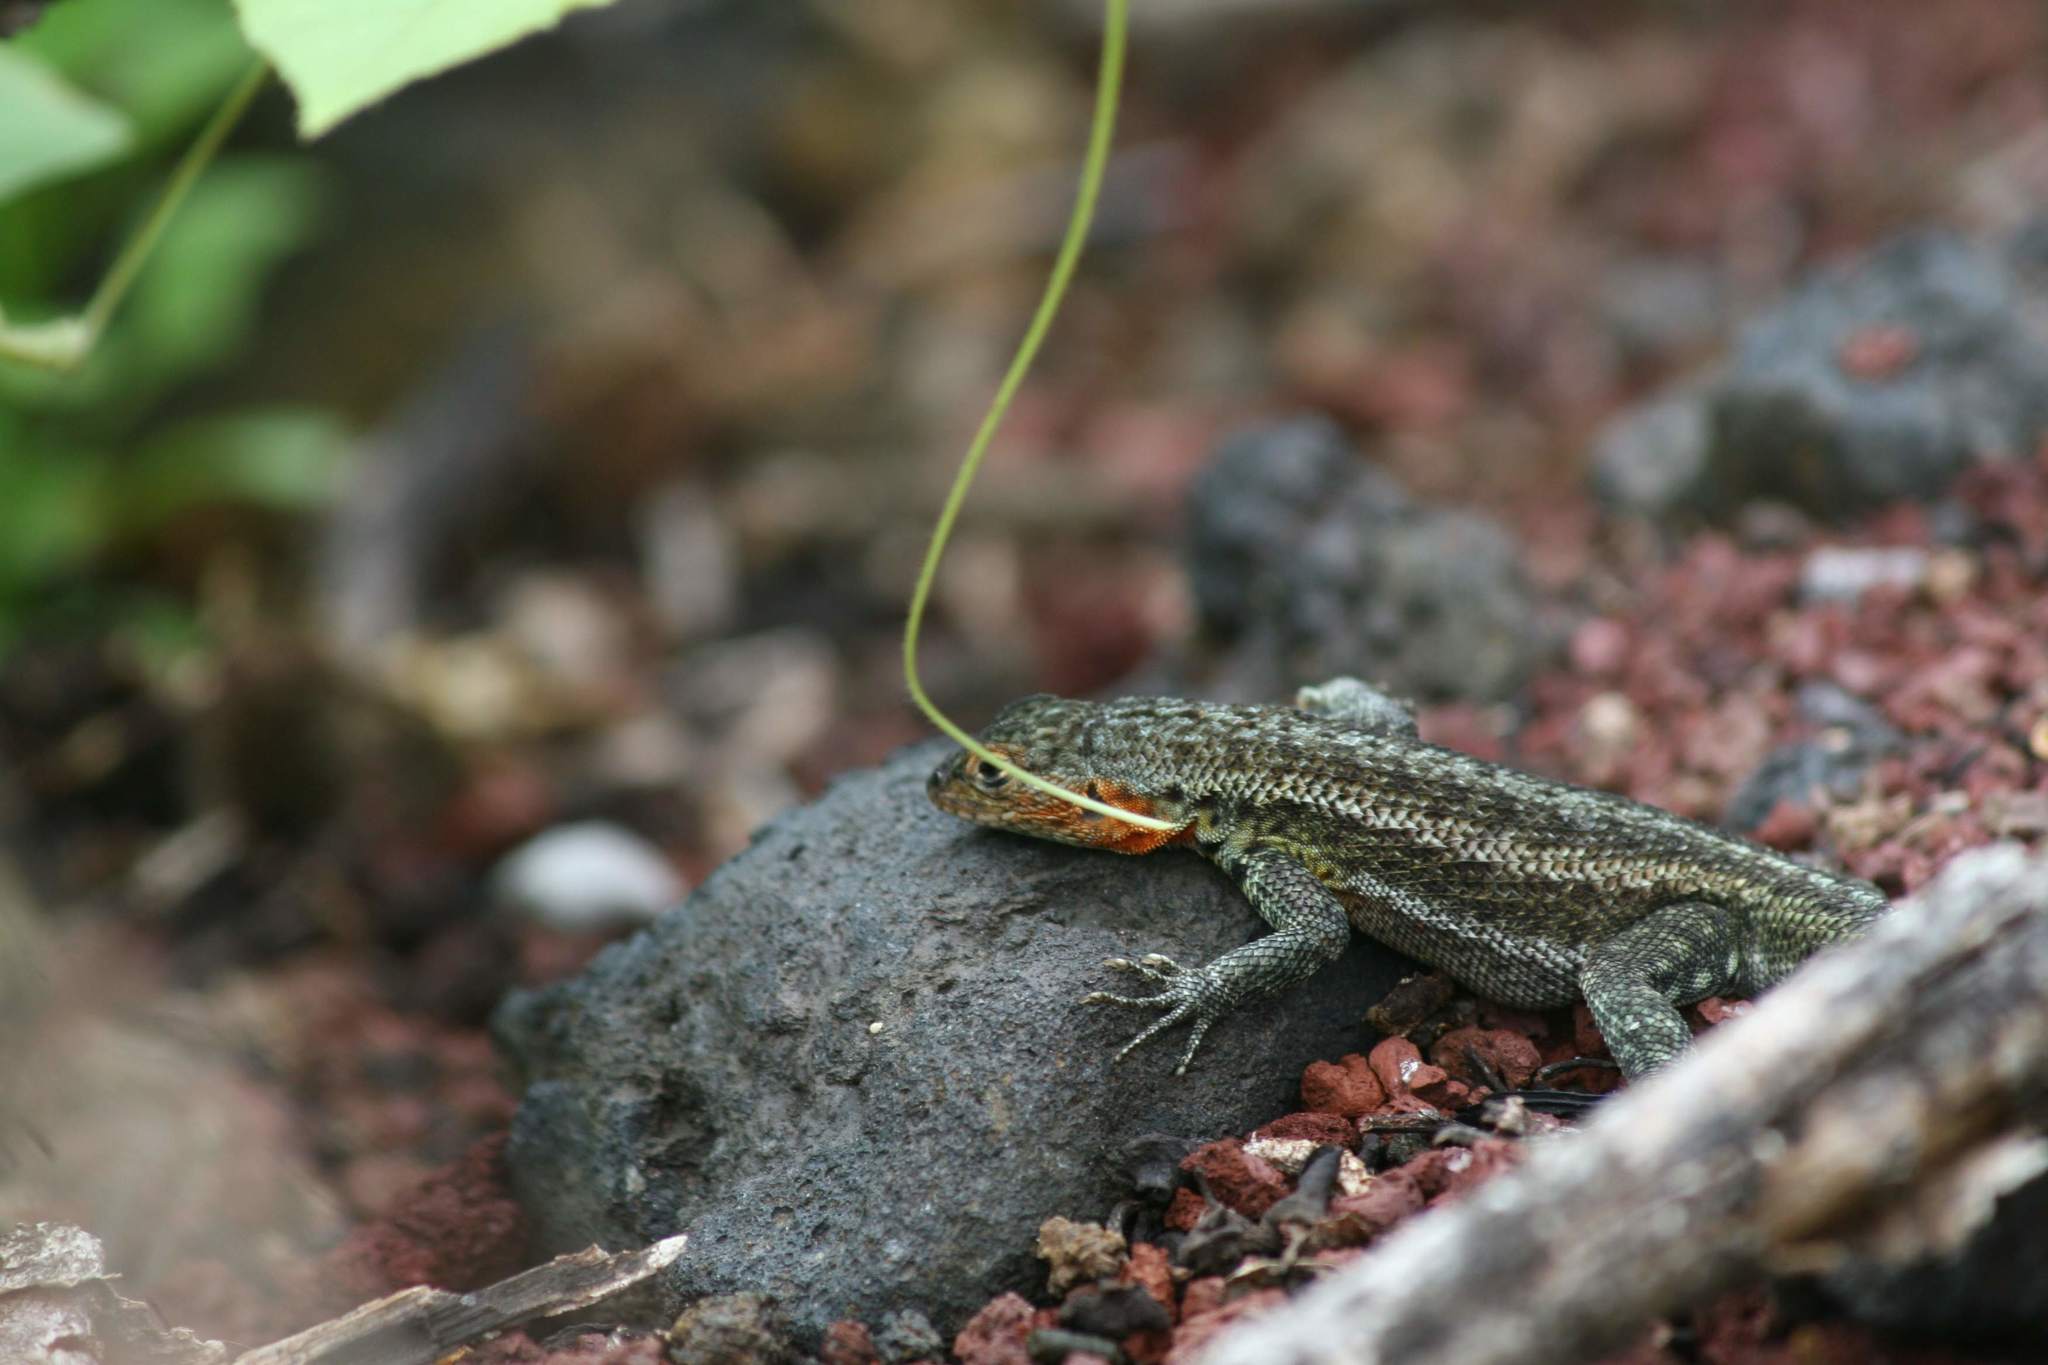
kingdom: Animalia
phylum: Chordata
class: Squamata
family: Tropiduridae
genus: Microlophus
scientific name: Microlophus albemarlensis
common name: Galapagos lava lizard
